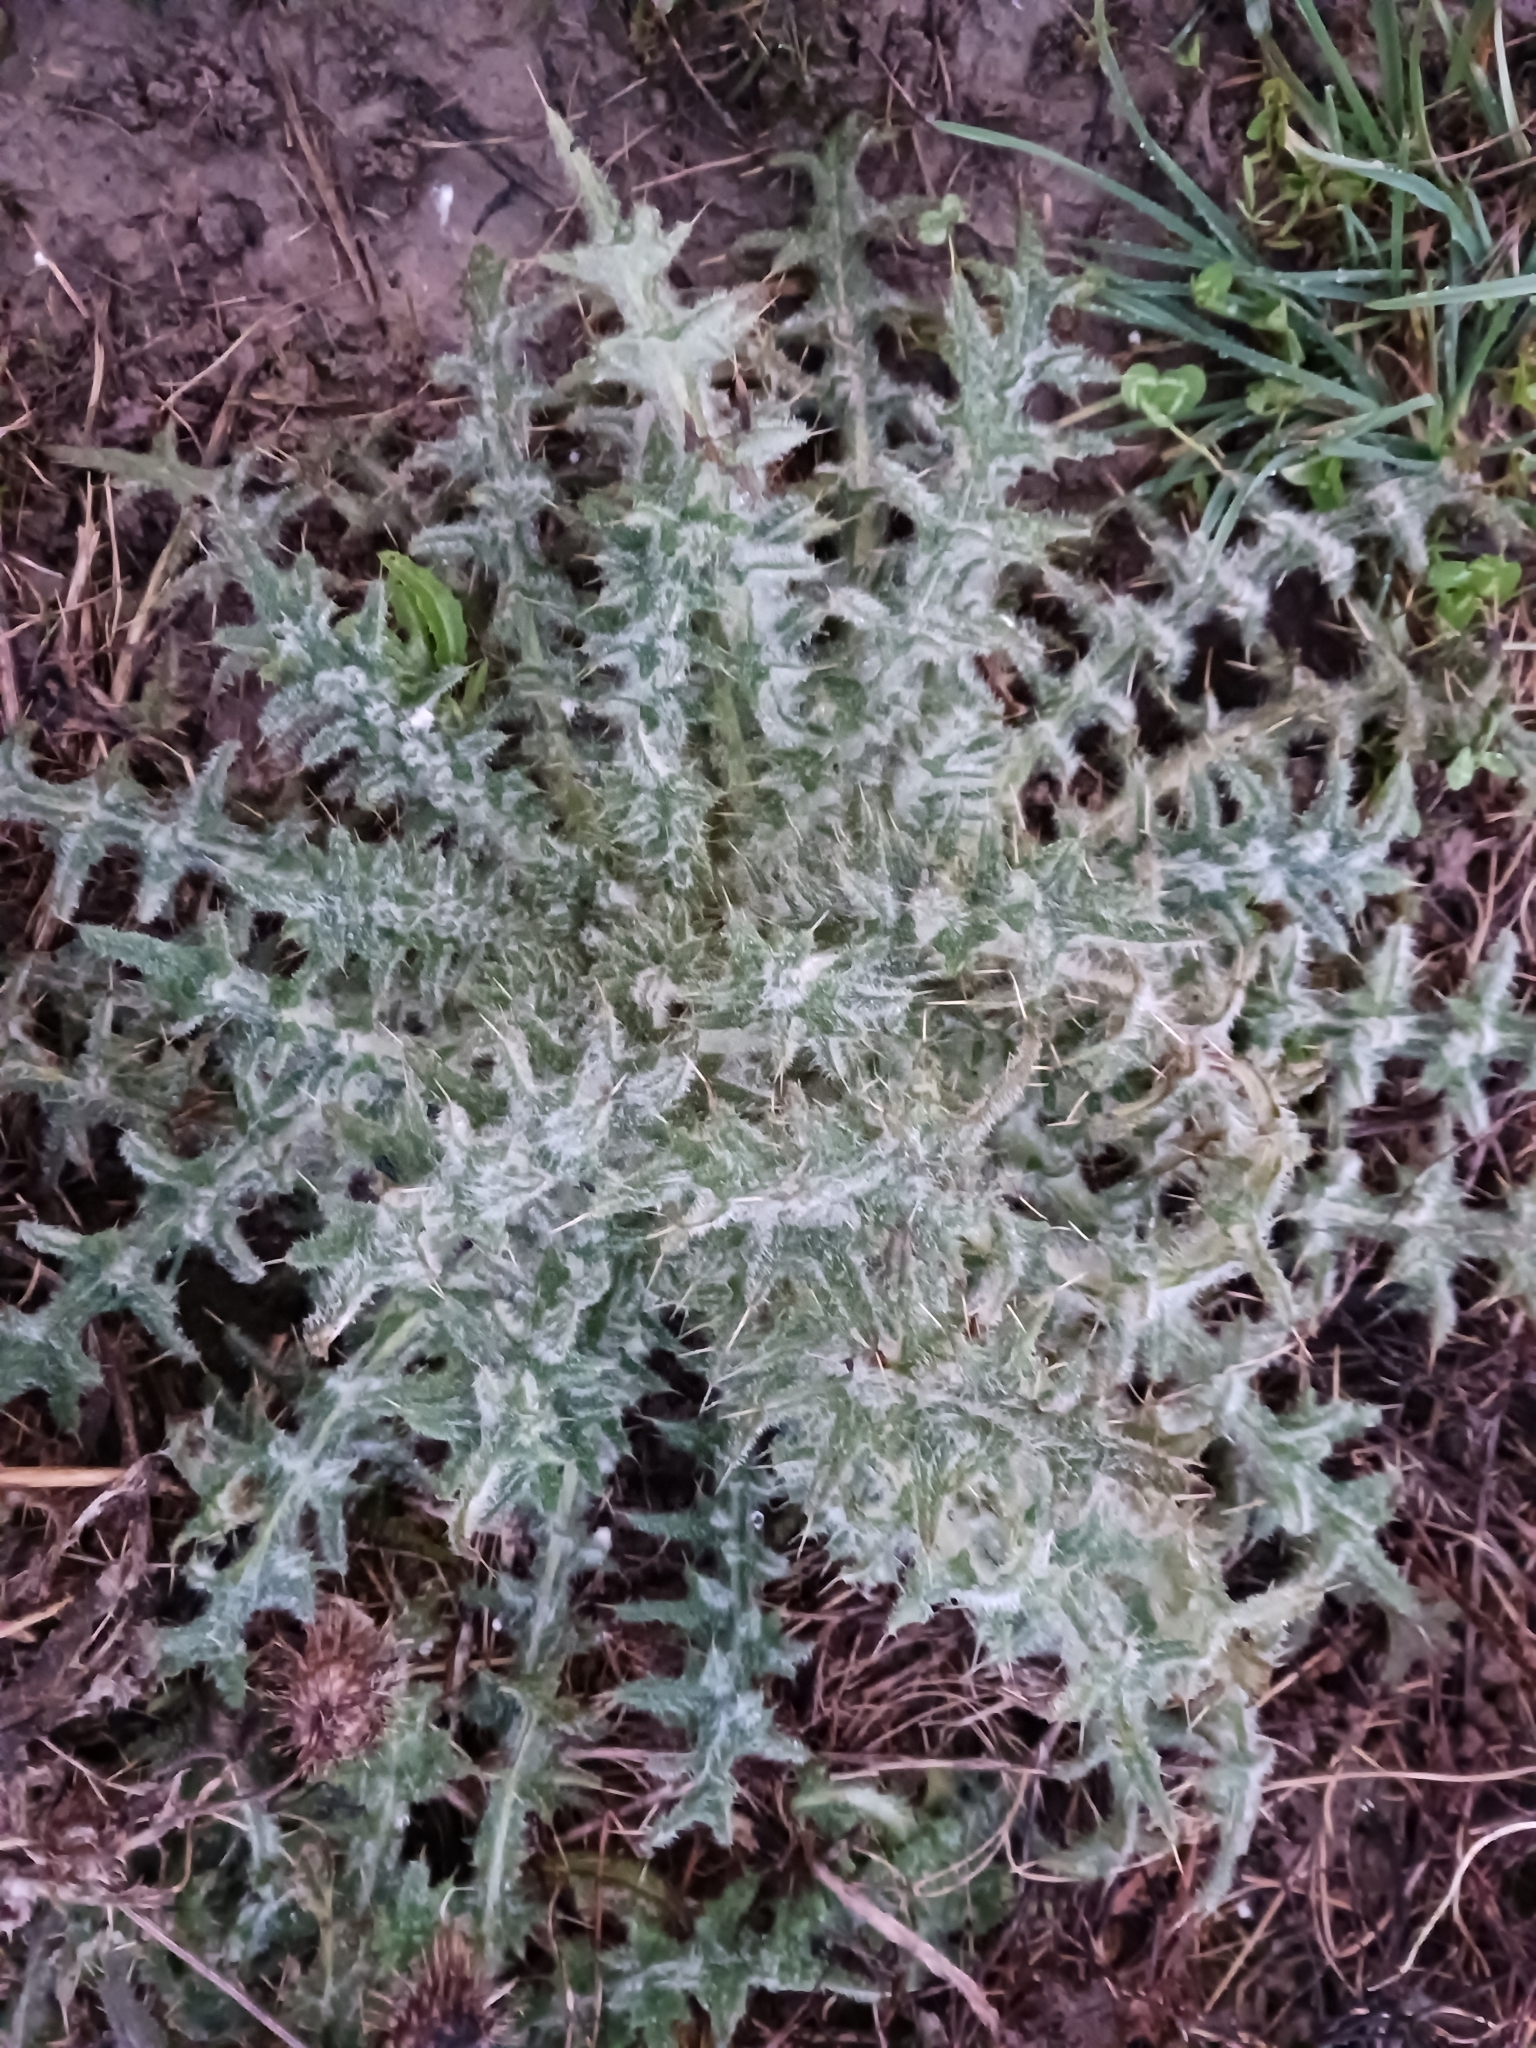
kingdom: Plantae
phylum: Tracheophyta
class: Magnoliopsida
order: Asterales
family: Asteraceae
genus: Cirsium
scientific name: Cirsium vulgare
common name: Bull thistle
